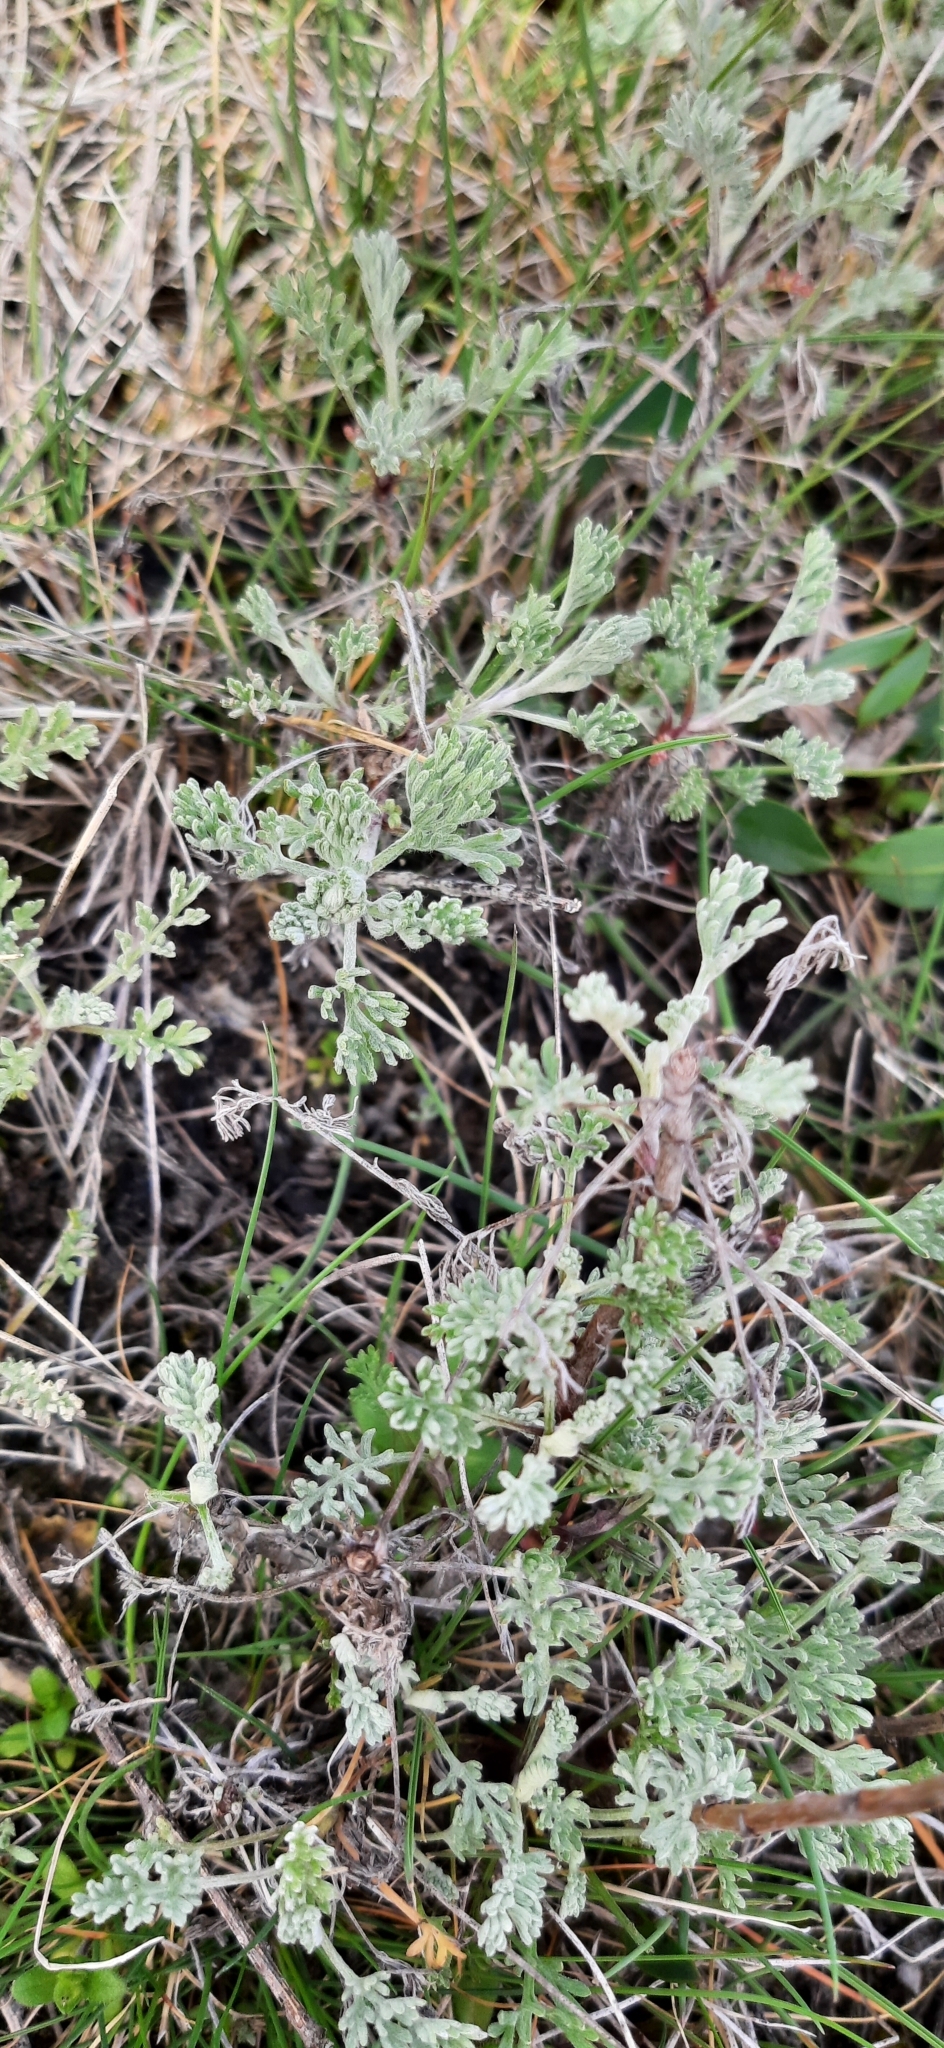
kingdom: Plantae
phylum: Tracheophyta
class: Magnoliopsida
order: Asterales
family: Asteraceae
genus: Artemisia
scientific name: Artemisia santonicum
